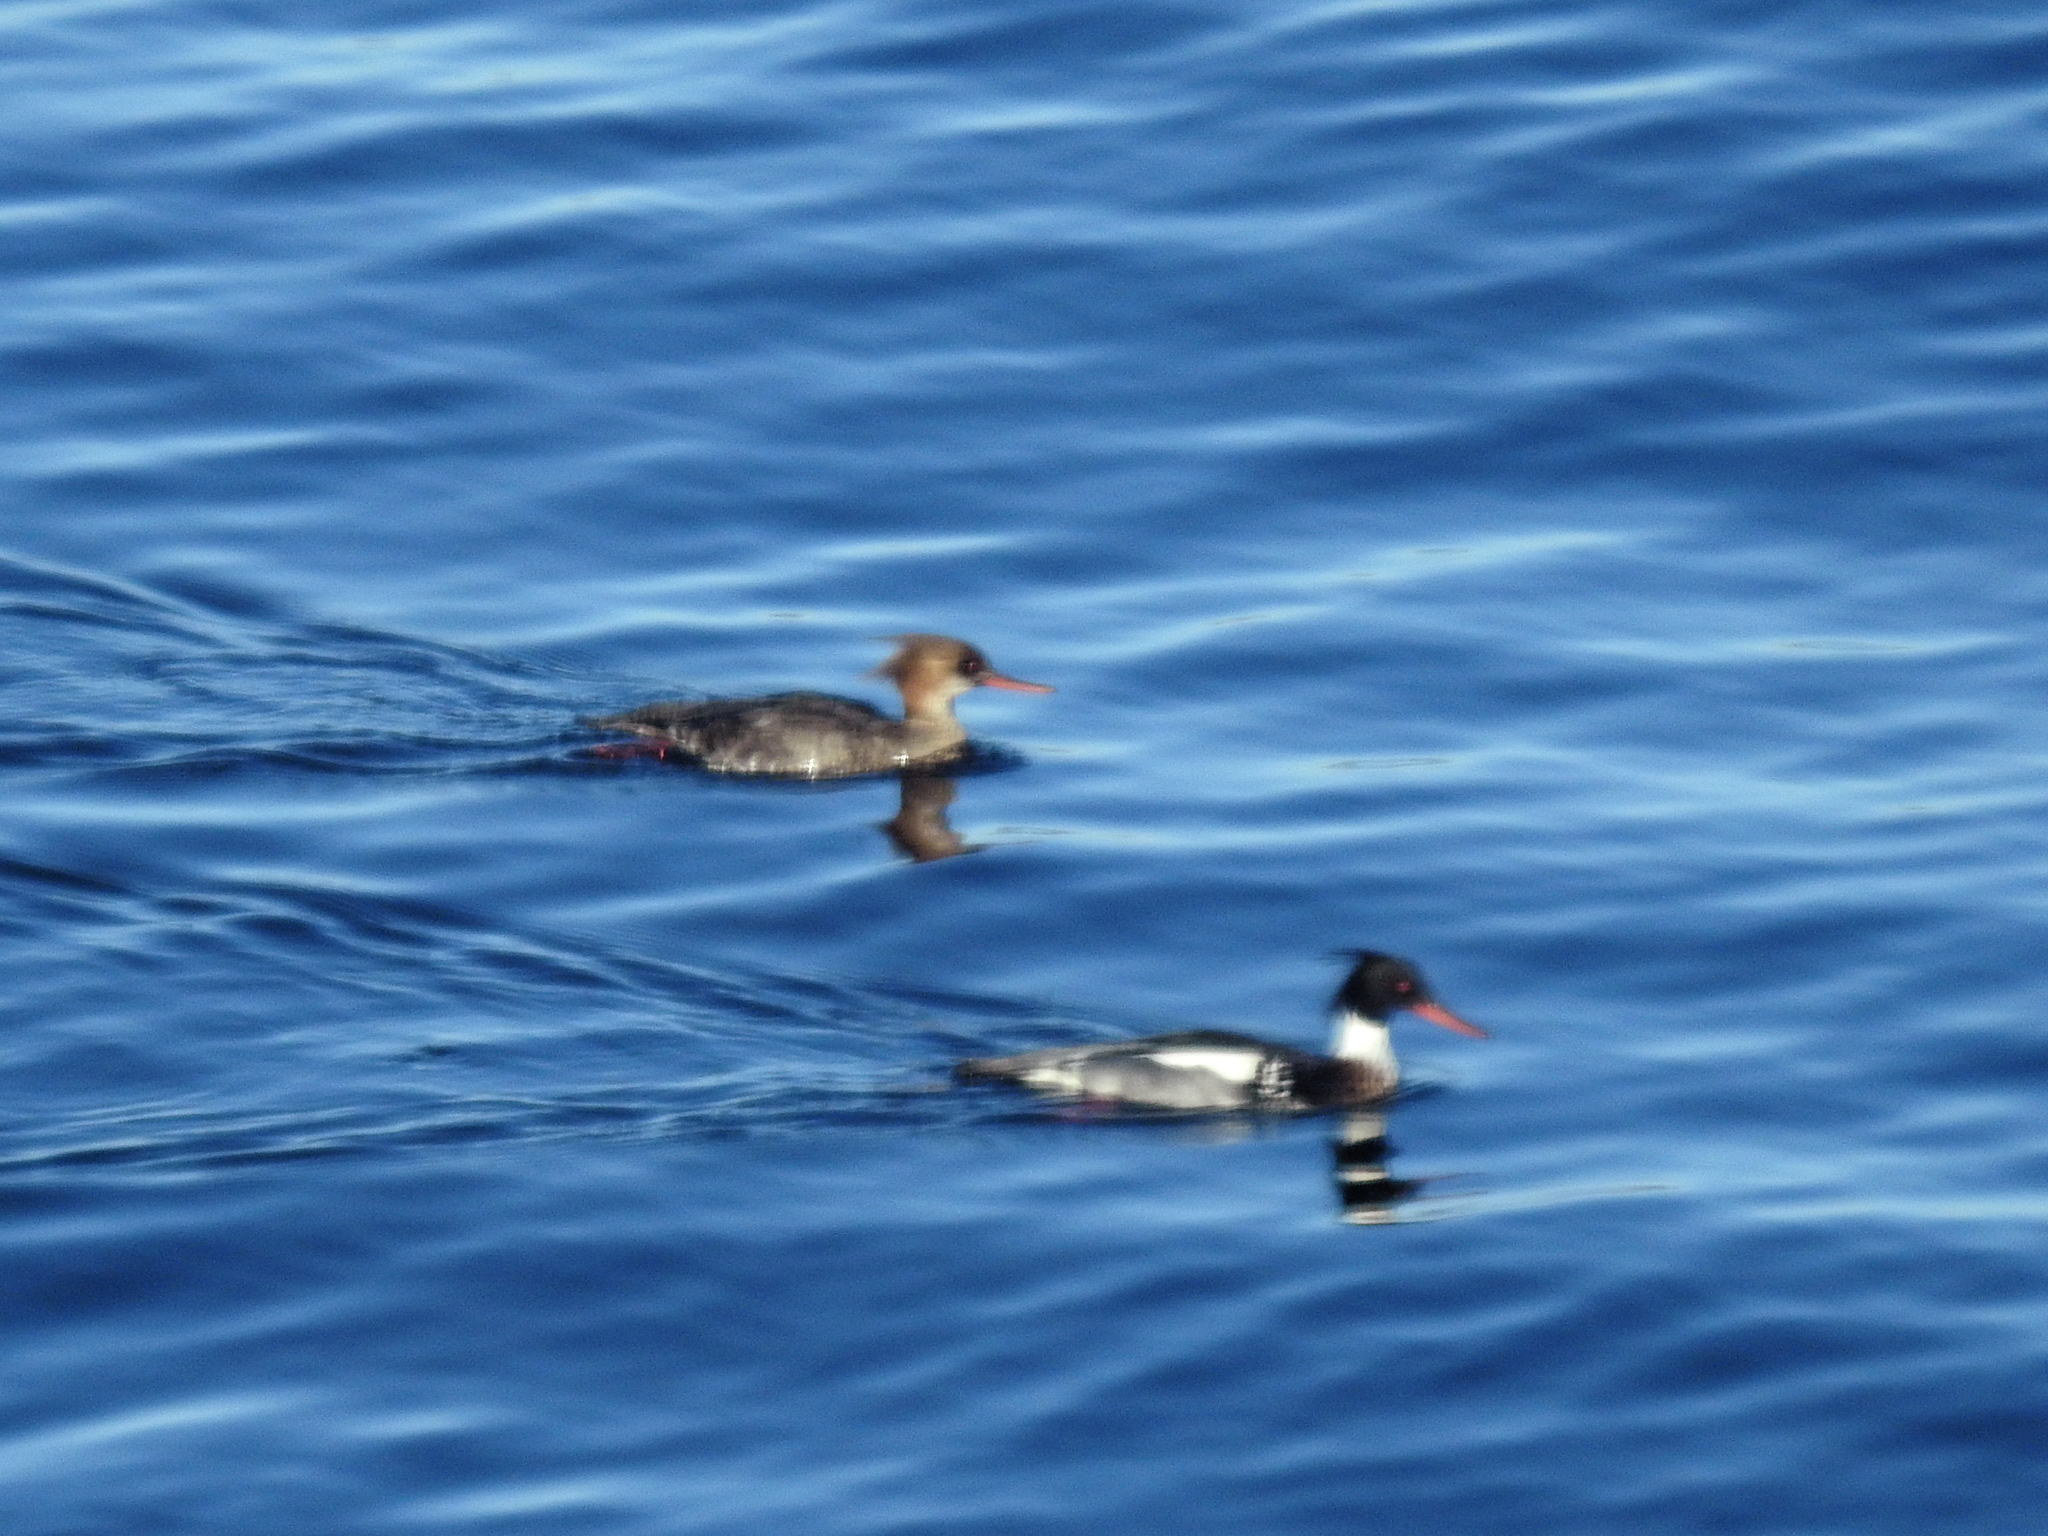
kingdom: Animalia
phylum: Chordata
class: Aves
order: Anseriformes
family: Anatidae
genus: Mergus
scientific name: Mergus serrator
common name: Red-breasted merganser
